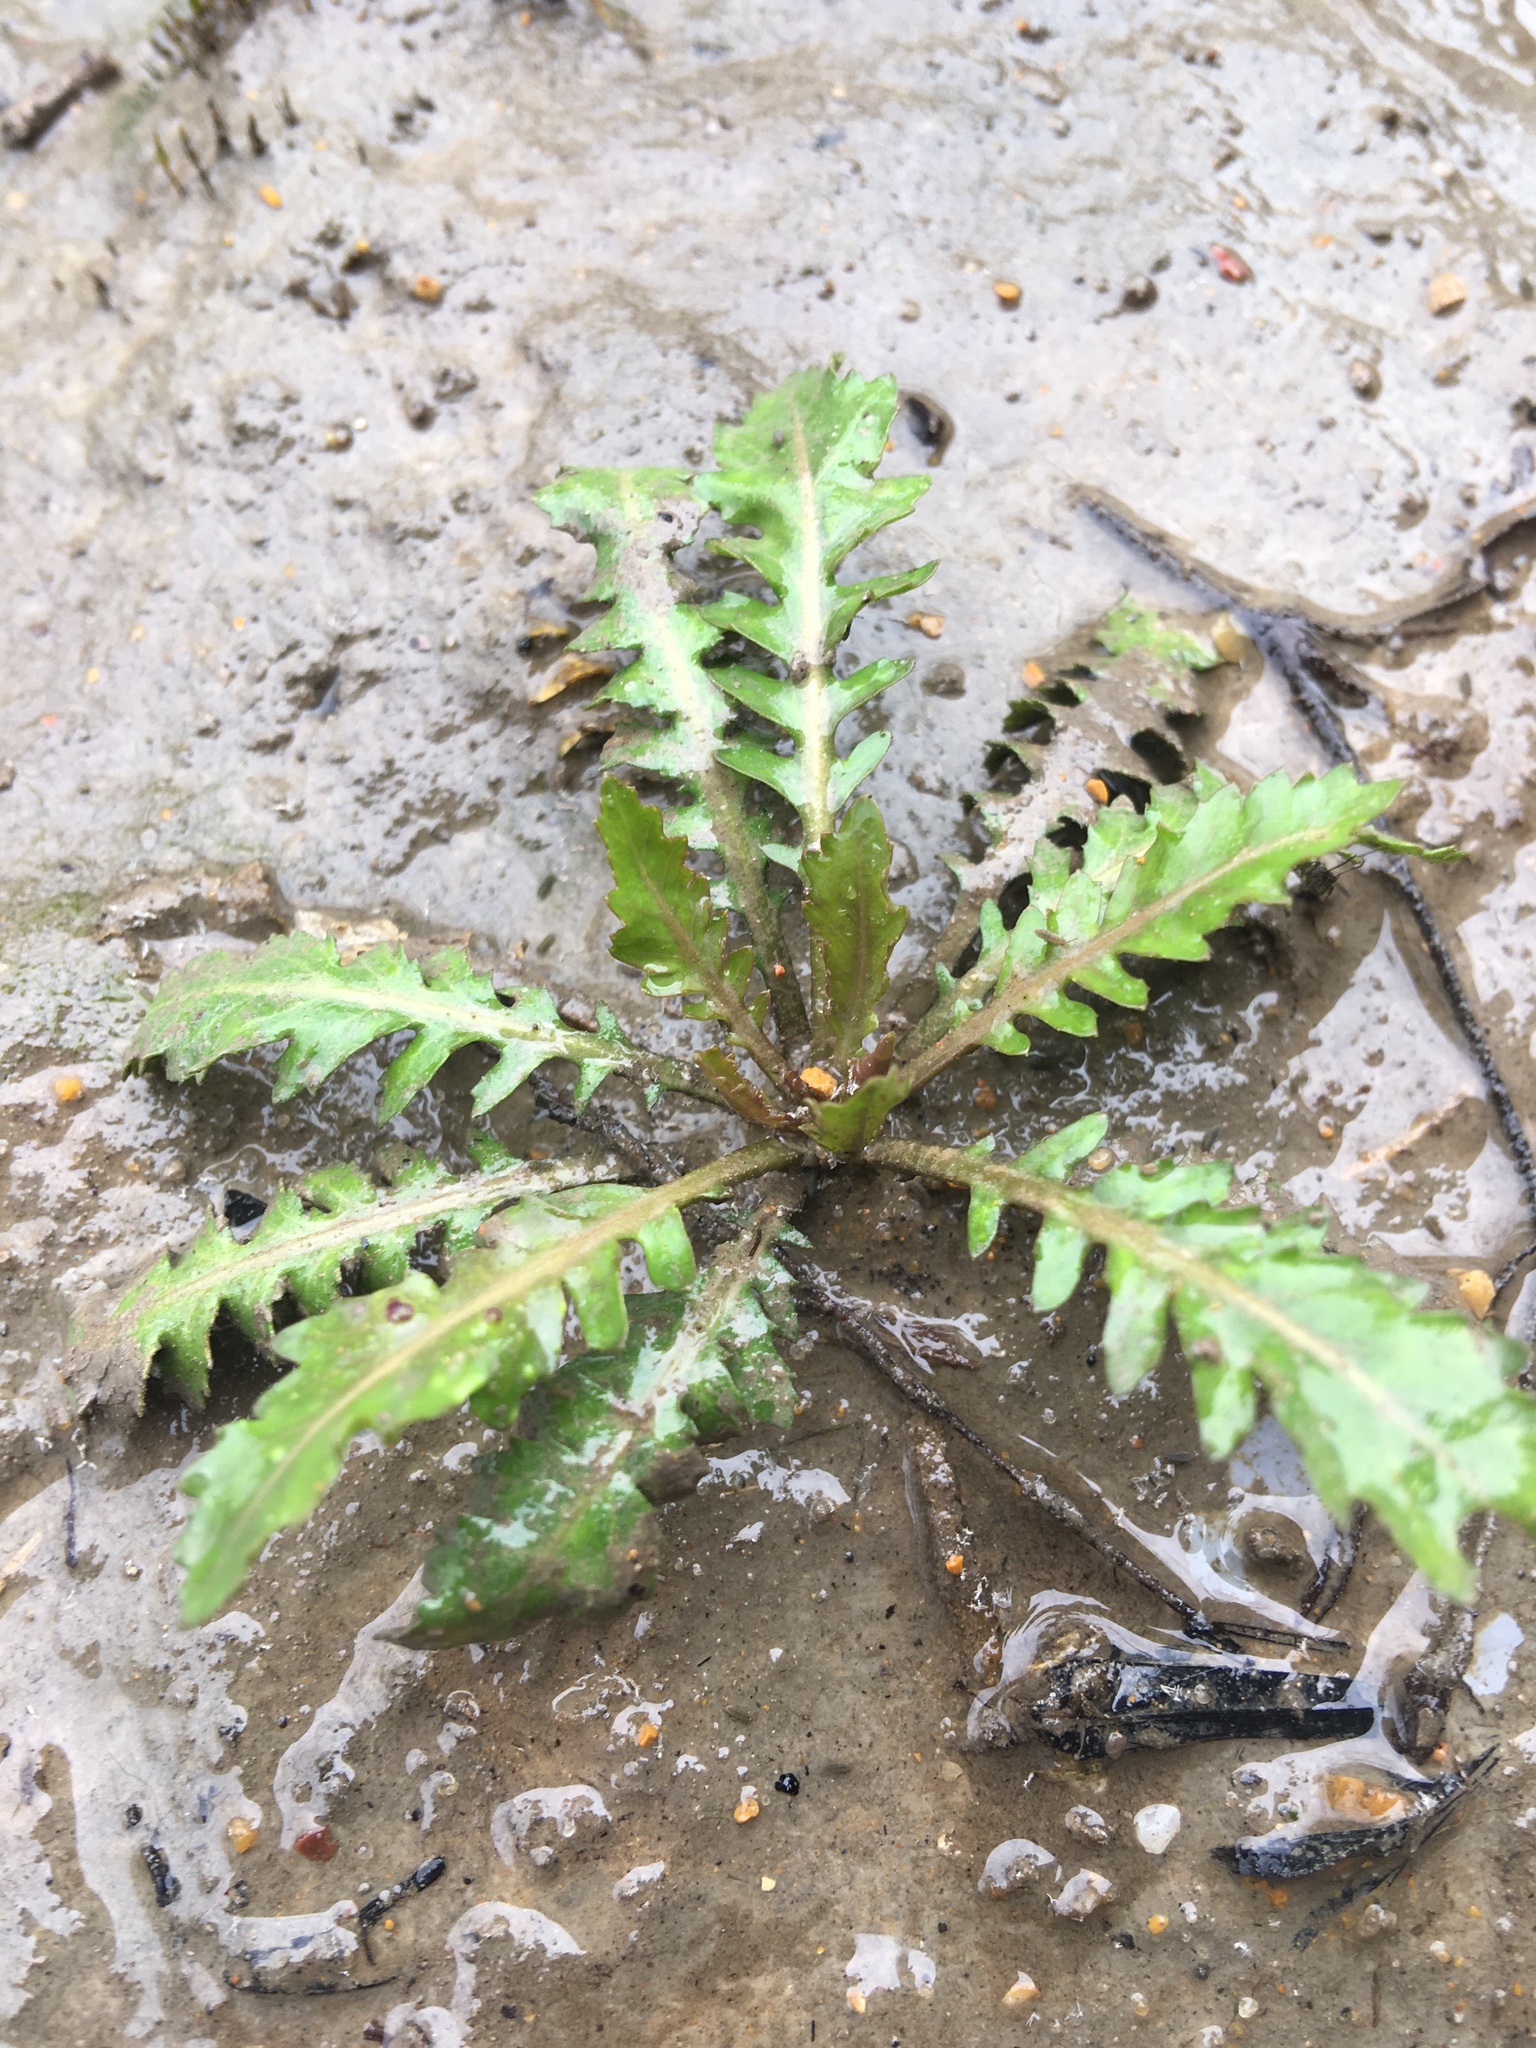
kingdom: Plantae
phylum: Tracheophyta
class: Magnoliopsida
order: Brassicales
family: Brassicaceae
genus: Rorippa
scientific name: Rorippa teres
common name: Southern marsh yellowcress
